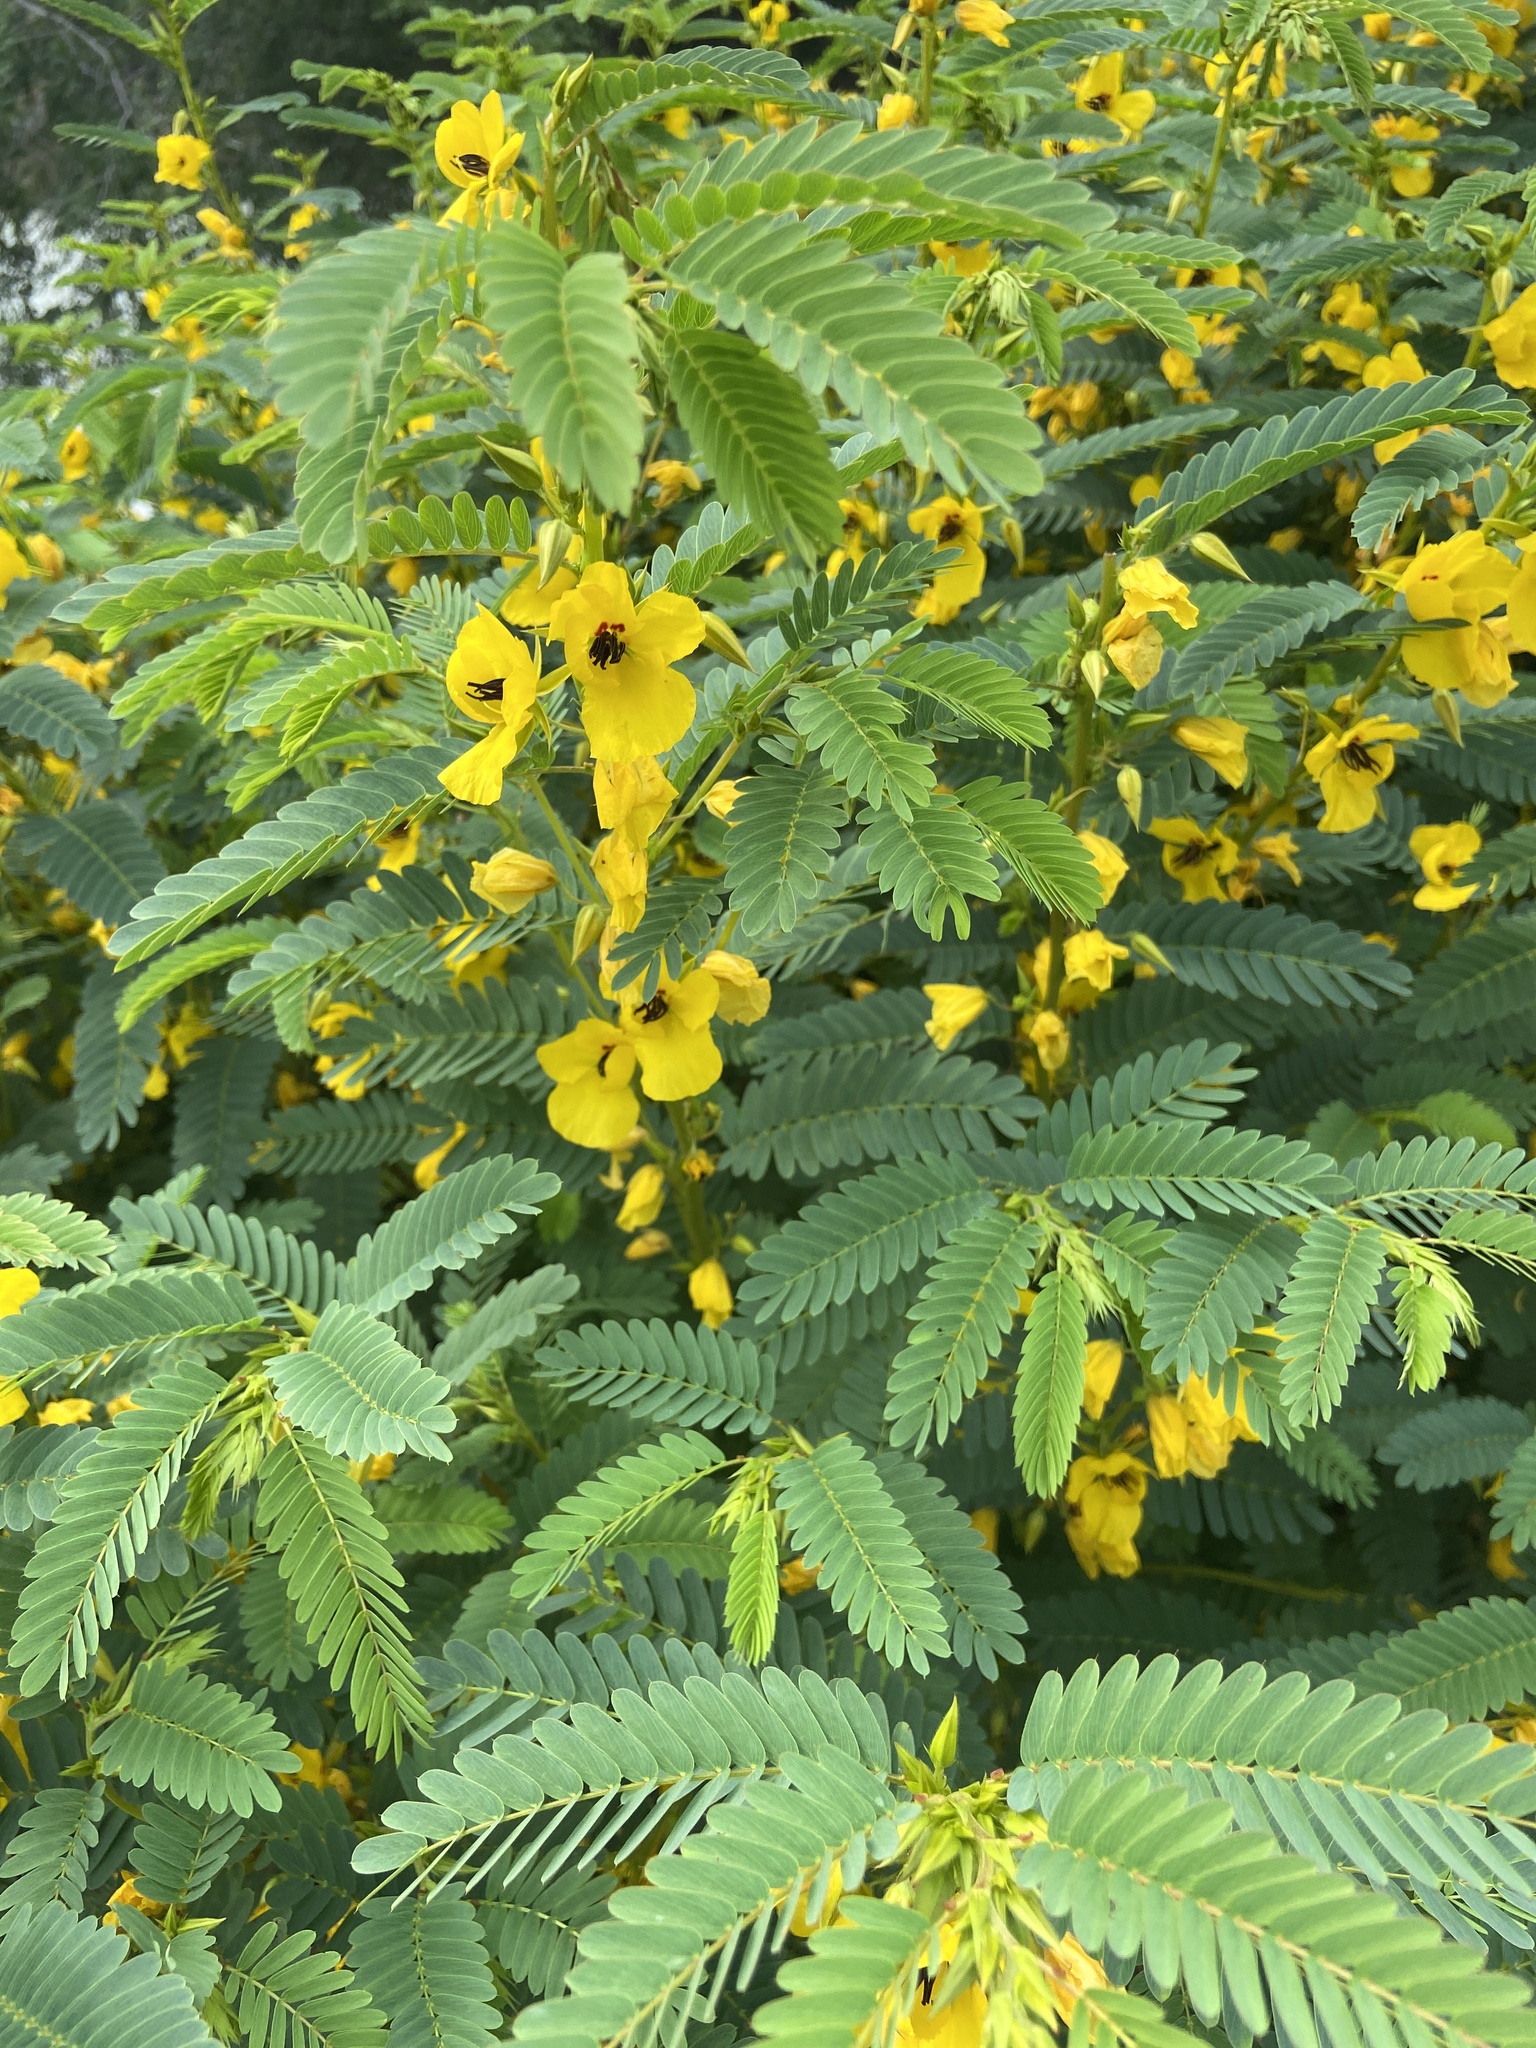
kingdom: Plantae
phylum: Tracheophyta
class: Magnoliopsida
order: Fabales
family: Fabaceae
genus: Chamaecrista
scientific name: Chamaecrista fasciculata
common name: Golden cassia
